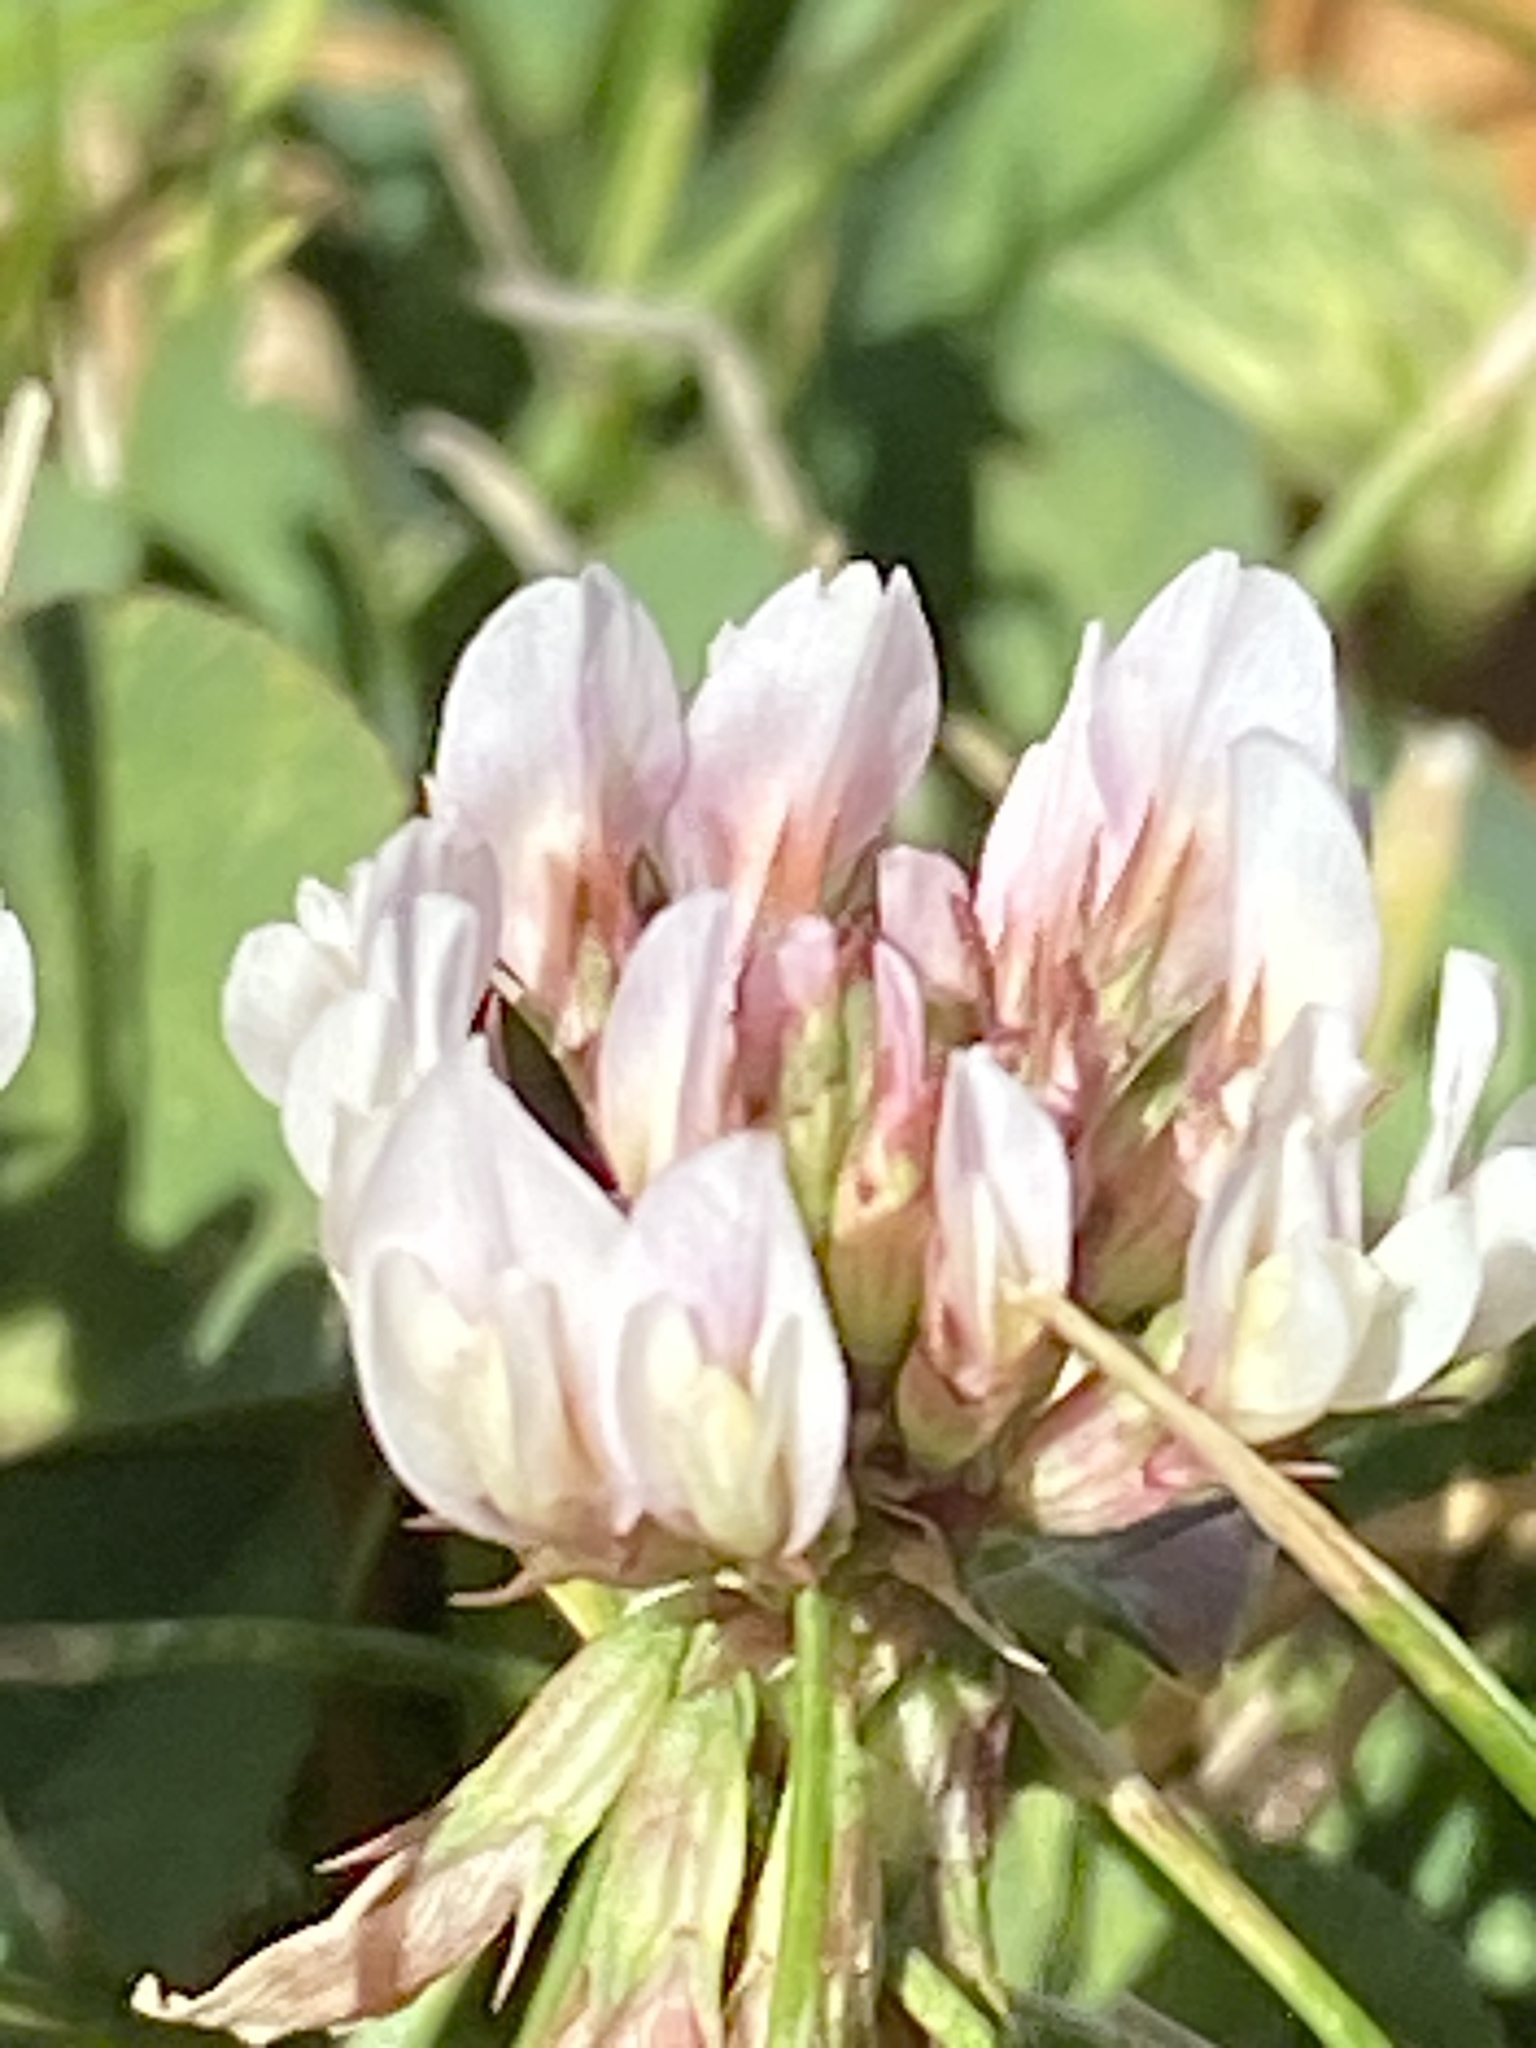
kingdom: Plantae
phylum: Tracheophyta
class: Magnoliopsida
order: Fabales
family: Fabaceae
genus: Trifolium
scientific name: Trifolium repens
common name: White clover
